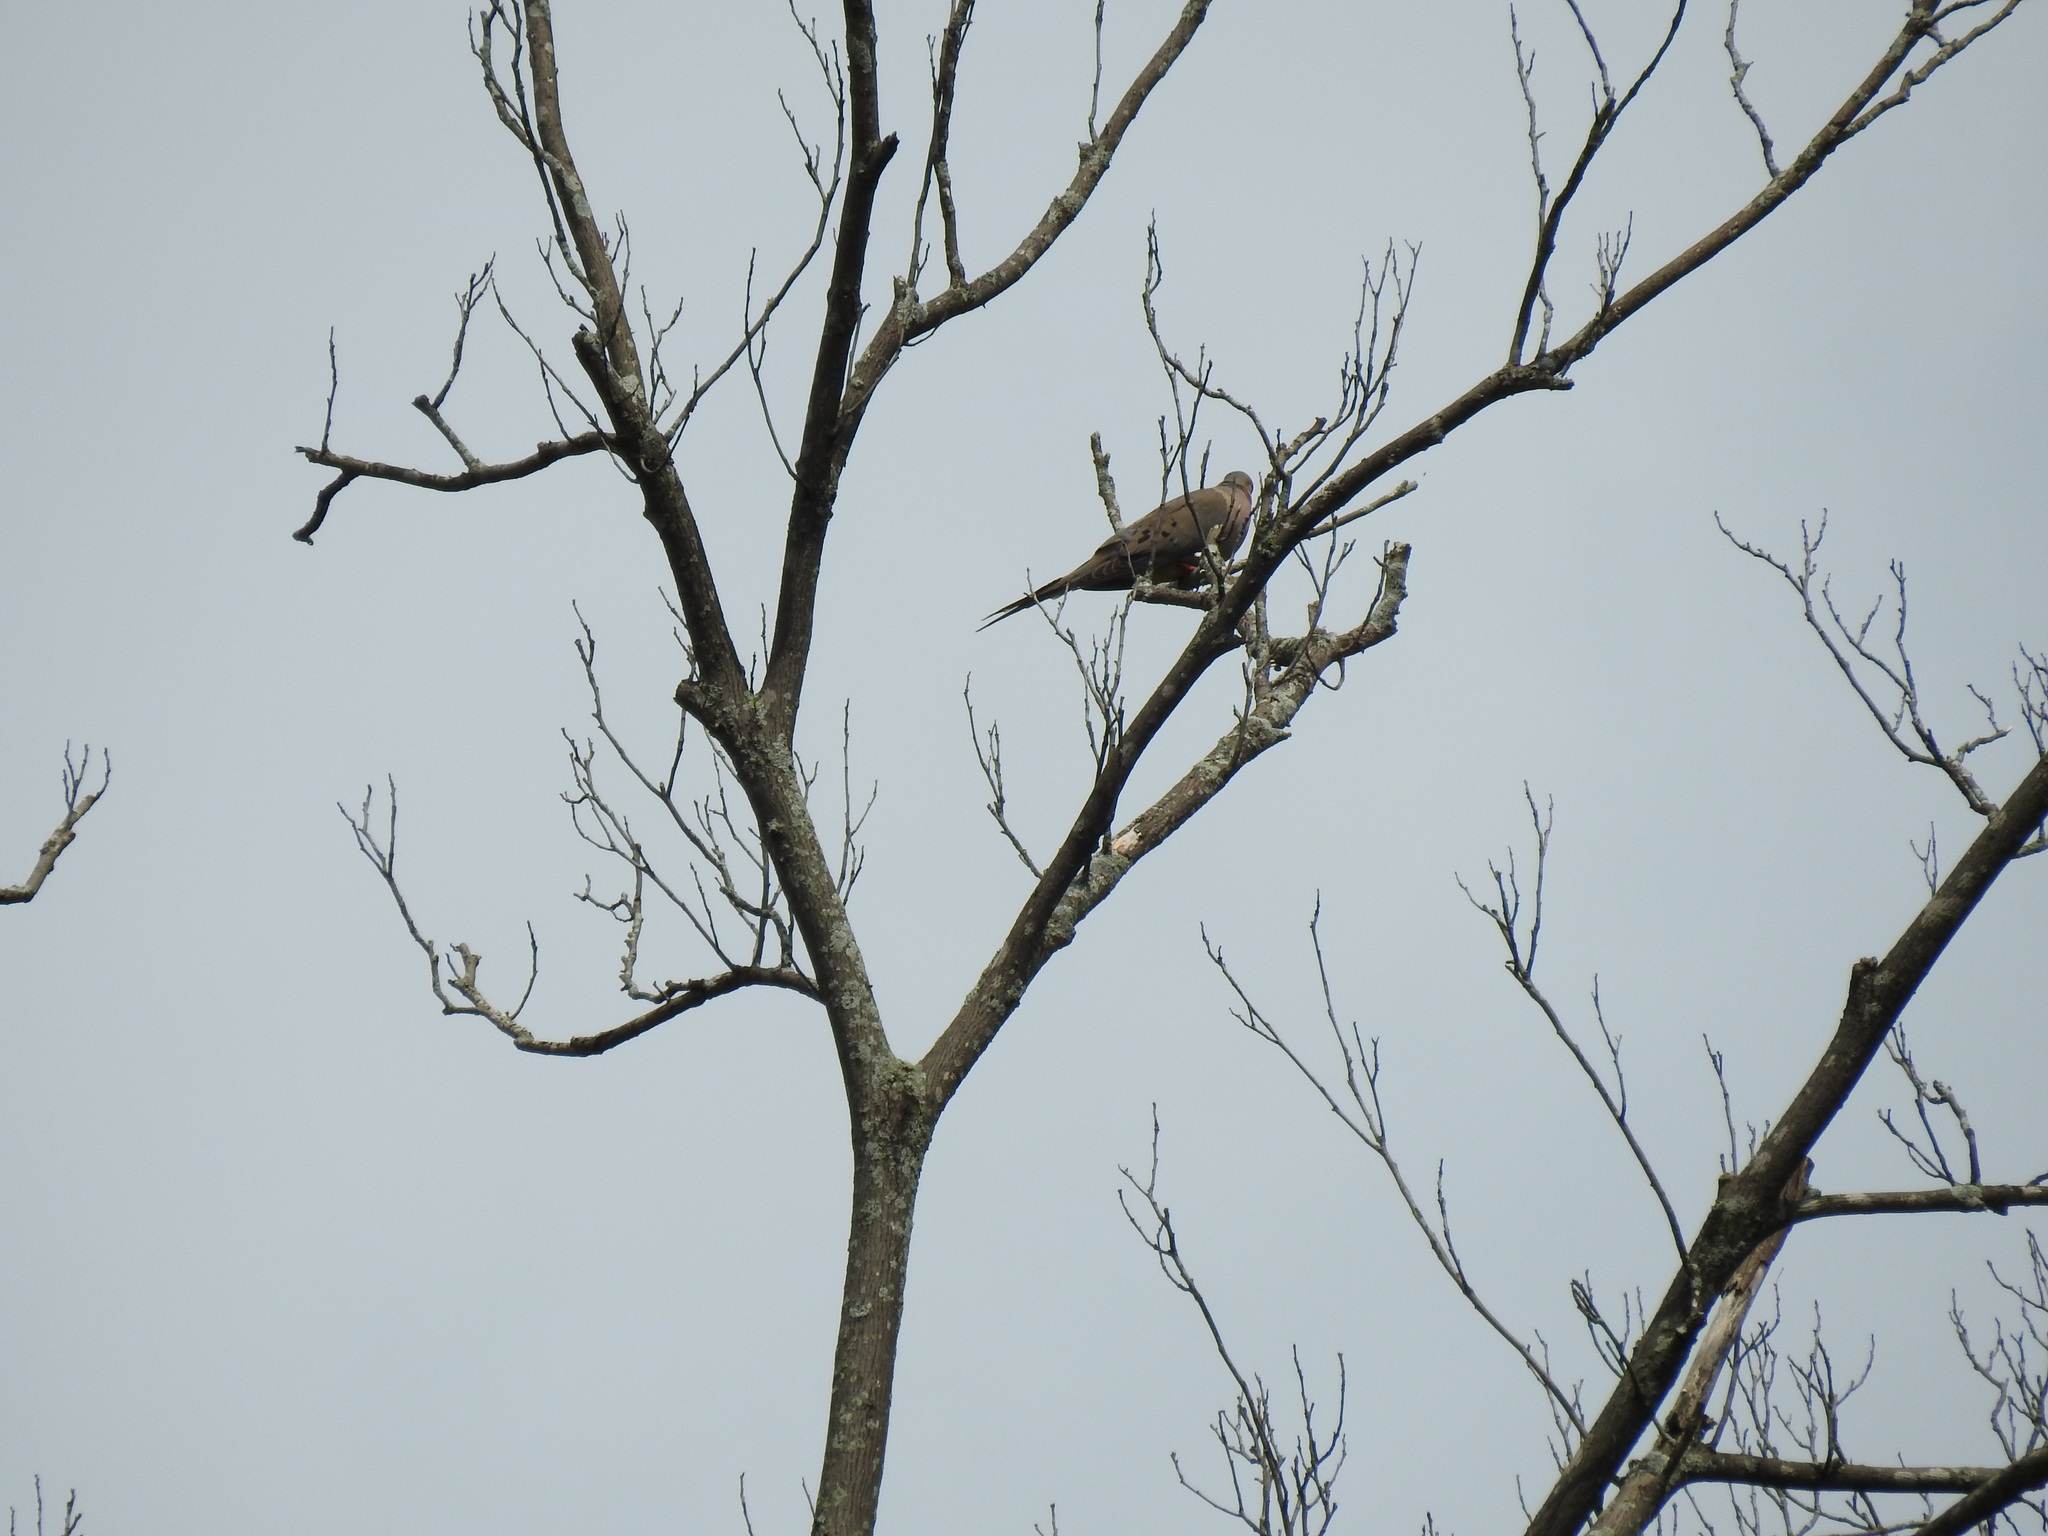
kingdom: Animalia
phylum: Chordata
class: Aves
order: Columbiformes
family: Columbidae
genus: Zenaida
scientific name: Zenaida macroura
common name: Mourning dove
